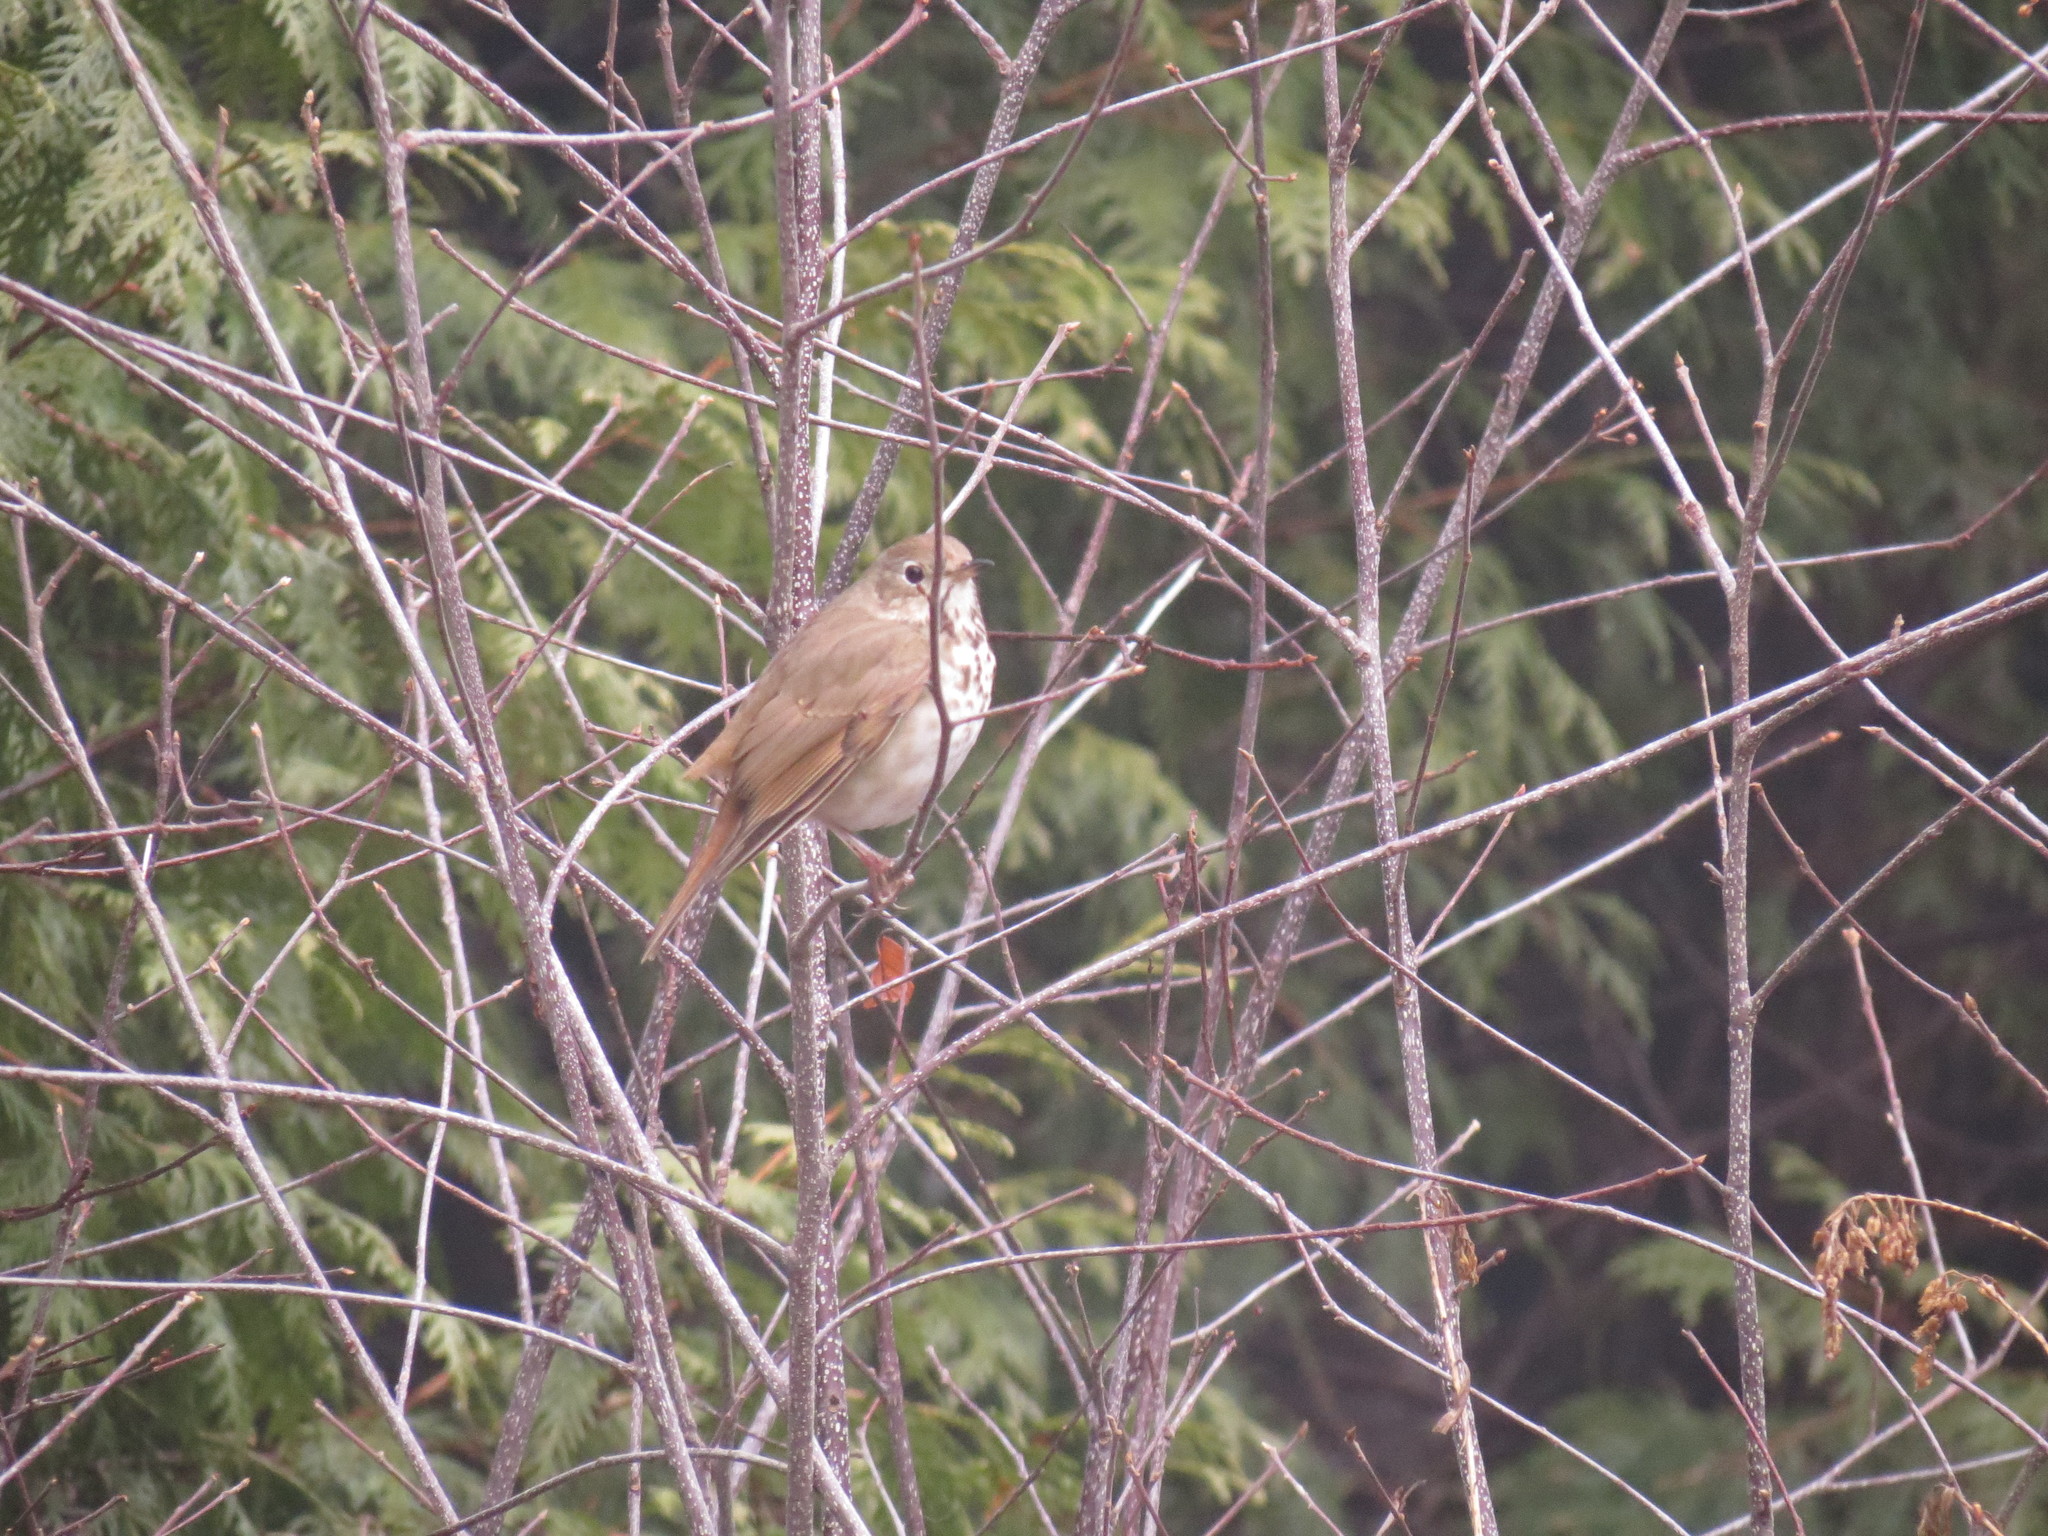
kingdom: Animalia
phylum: Chordata
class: Aves
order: Passeriformes
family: Turdidae
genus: Catharus
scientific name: Catharus guttatus
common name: Hermit thrush
